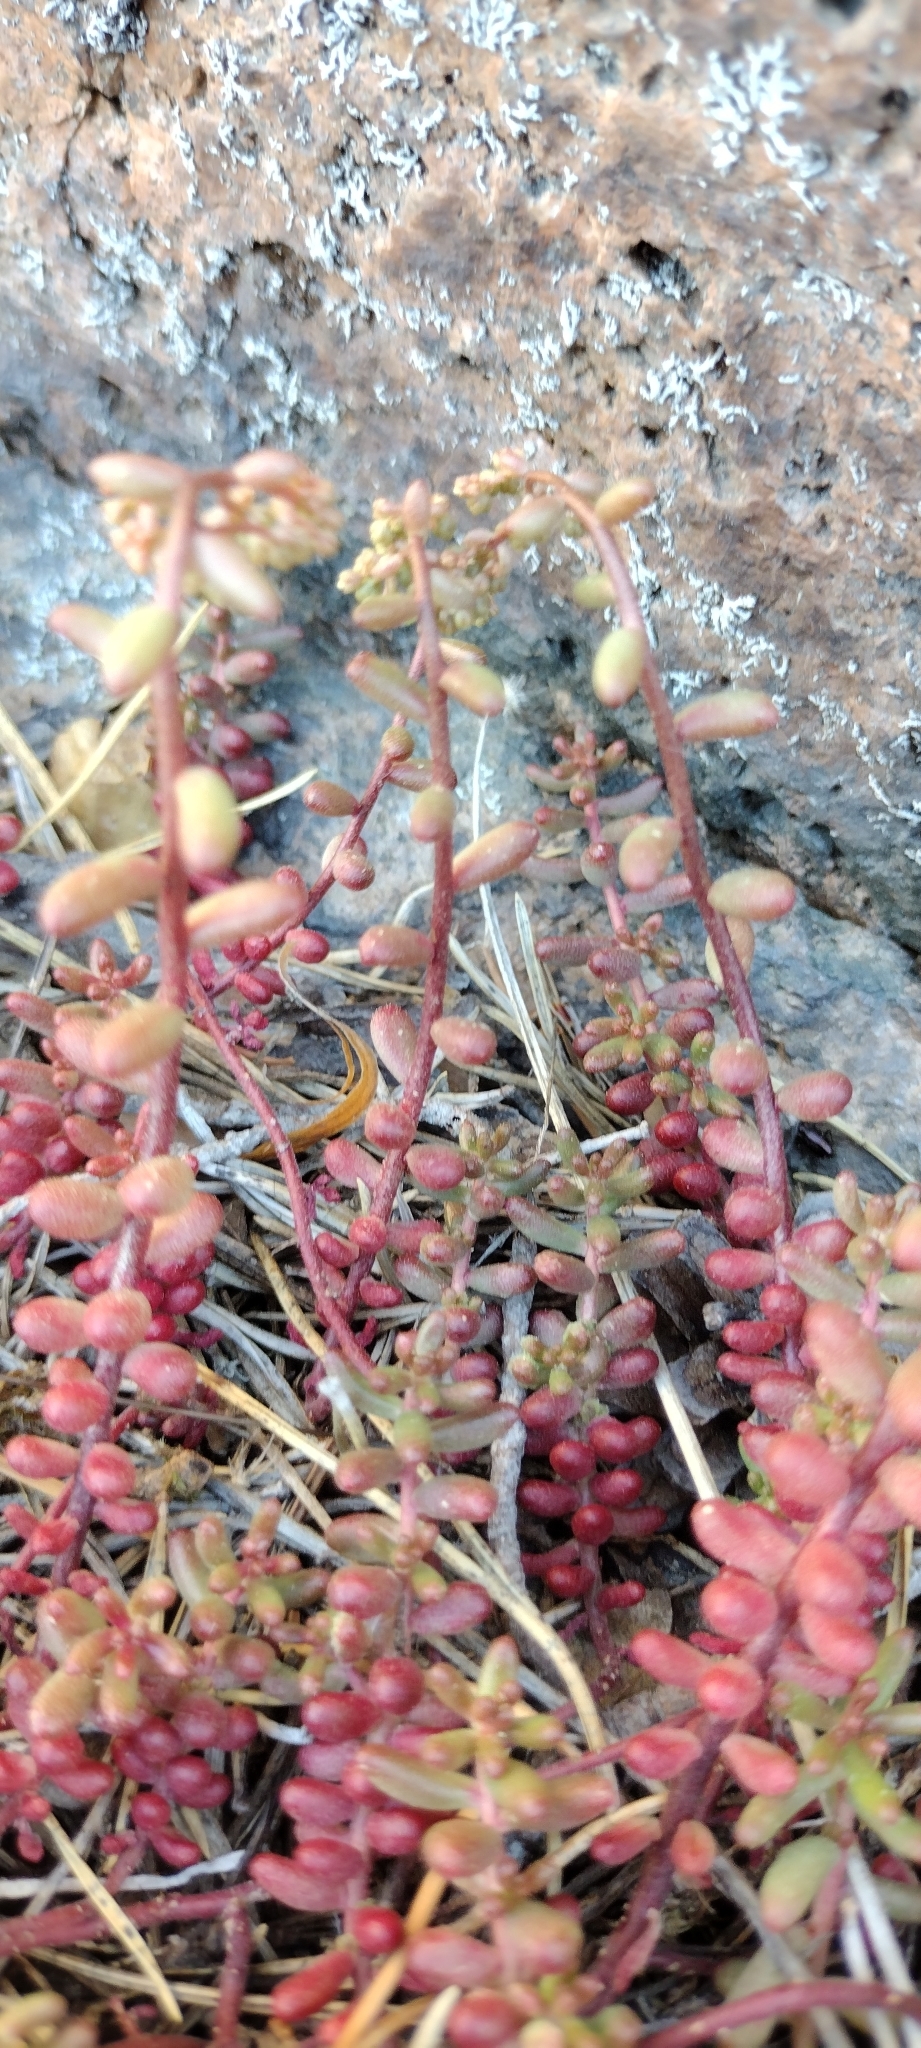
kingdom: Plantae
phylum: Tracheophyta
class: Magnoliopsida
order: Saxifragales
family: Crassulaceae
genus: Sedum
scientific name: Sedum album
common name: White stonecrop
